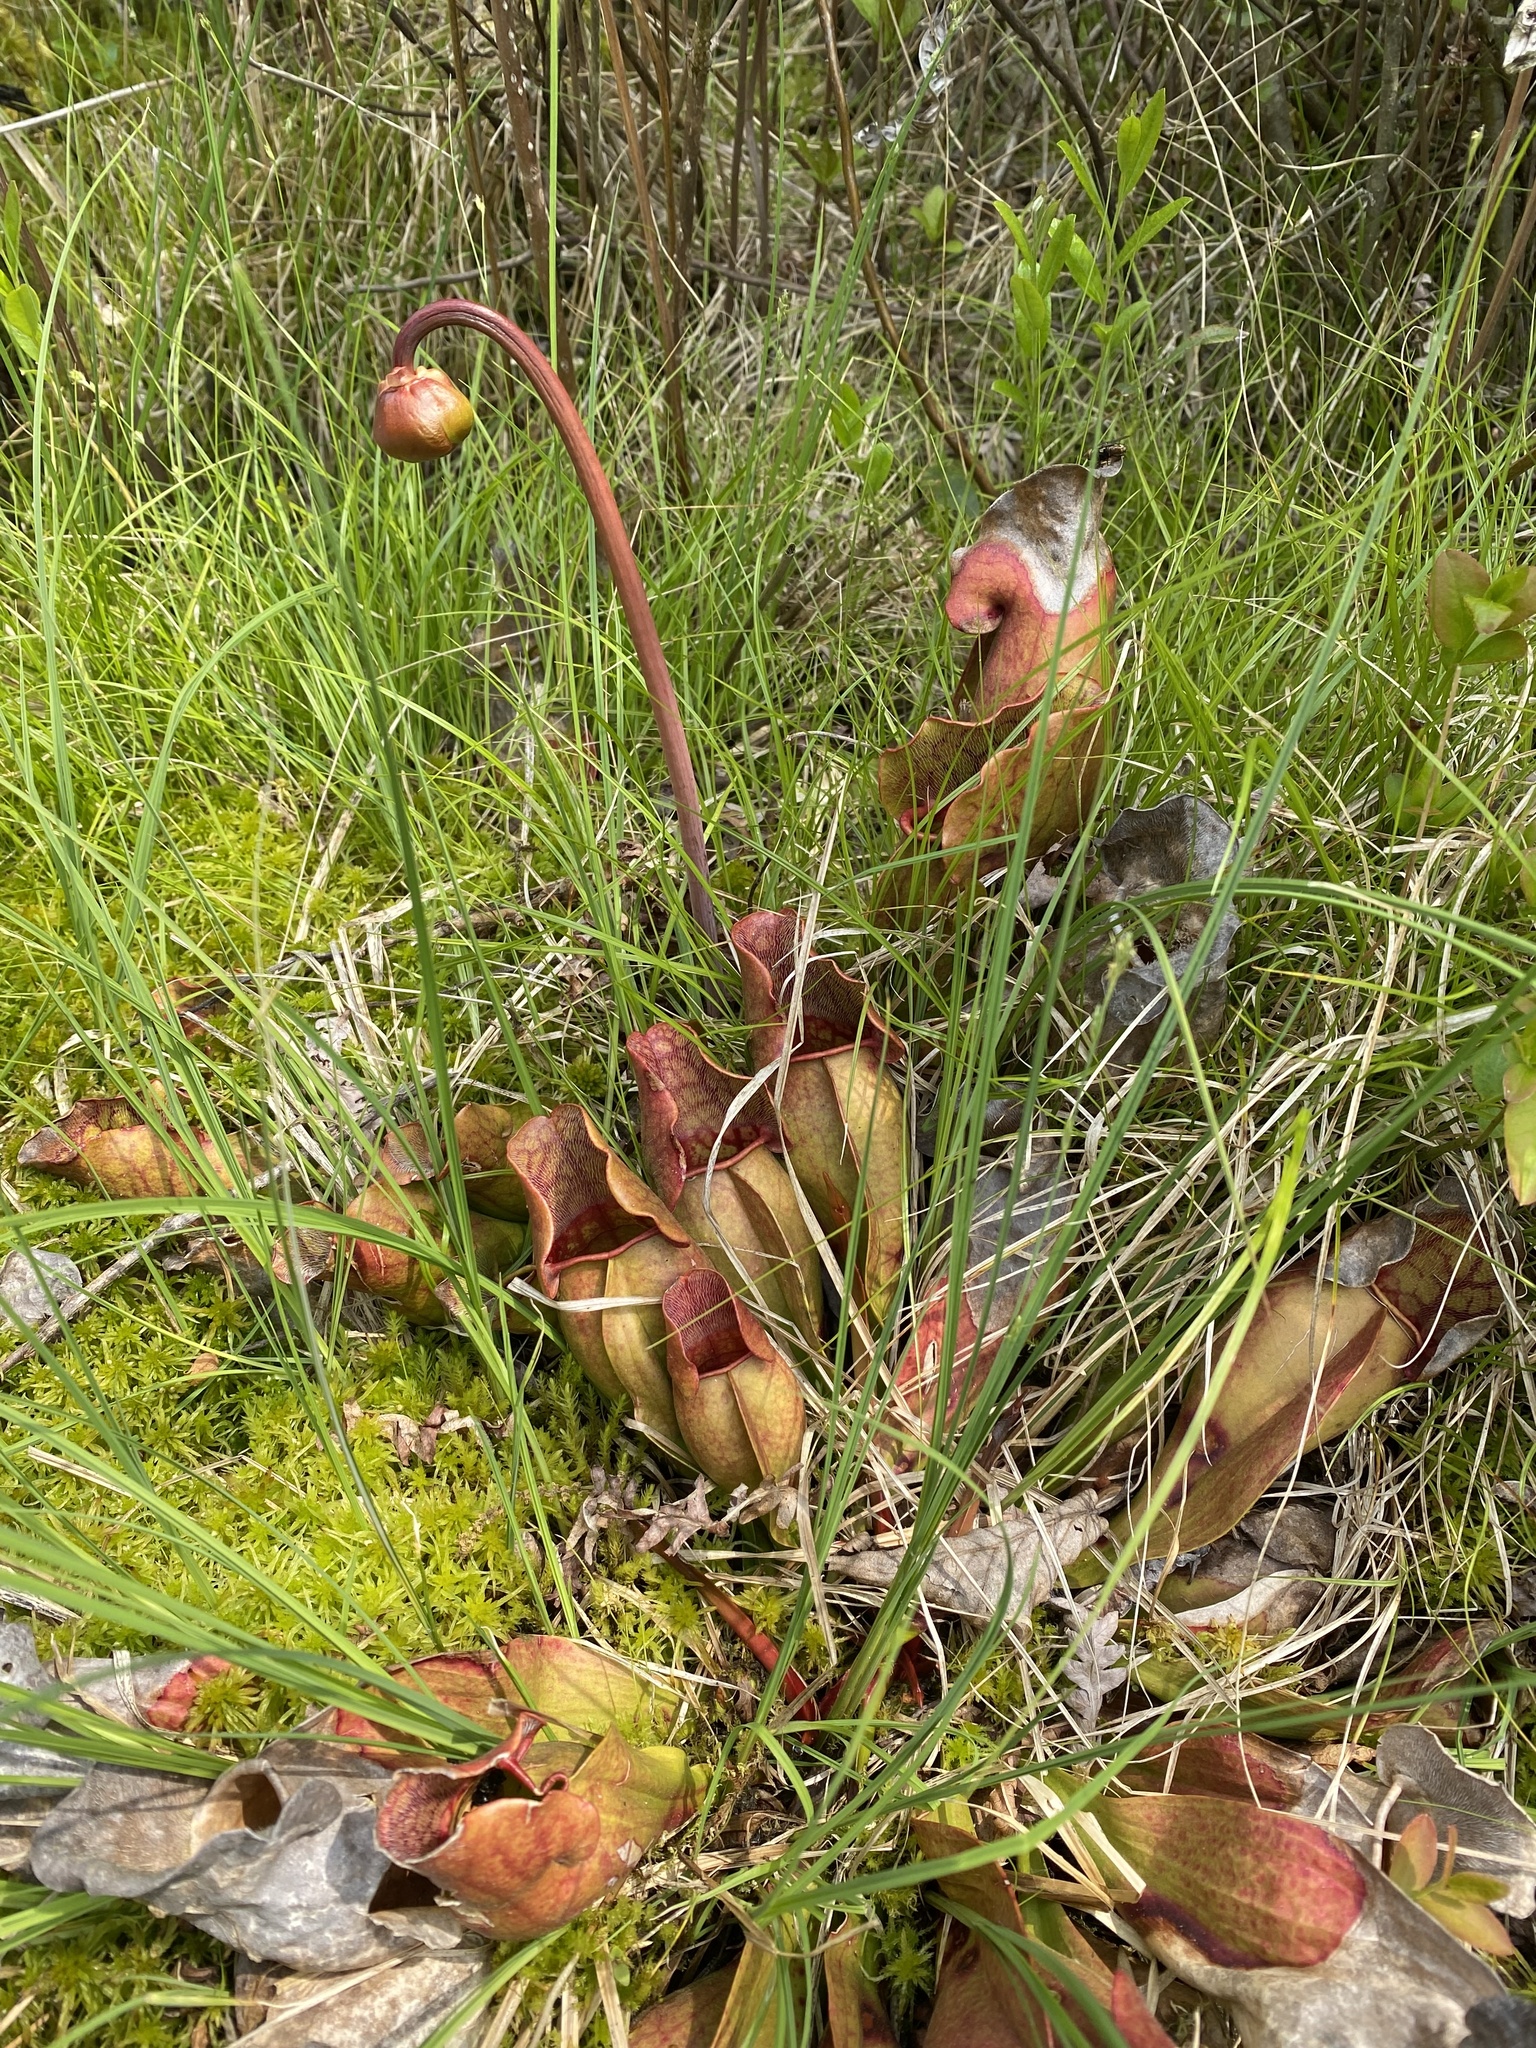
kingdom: Plantae
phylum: Tracheophyta
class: Magnoliopsida
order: Ericales
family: Sarraceniaceae
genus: Sarracenia
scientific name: Sarracenia purpurea
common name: Pitcherplant
